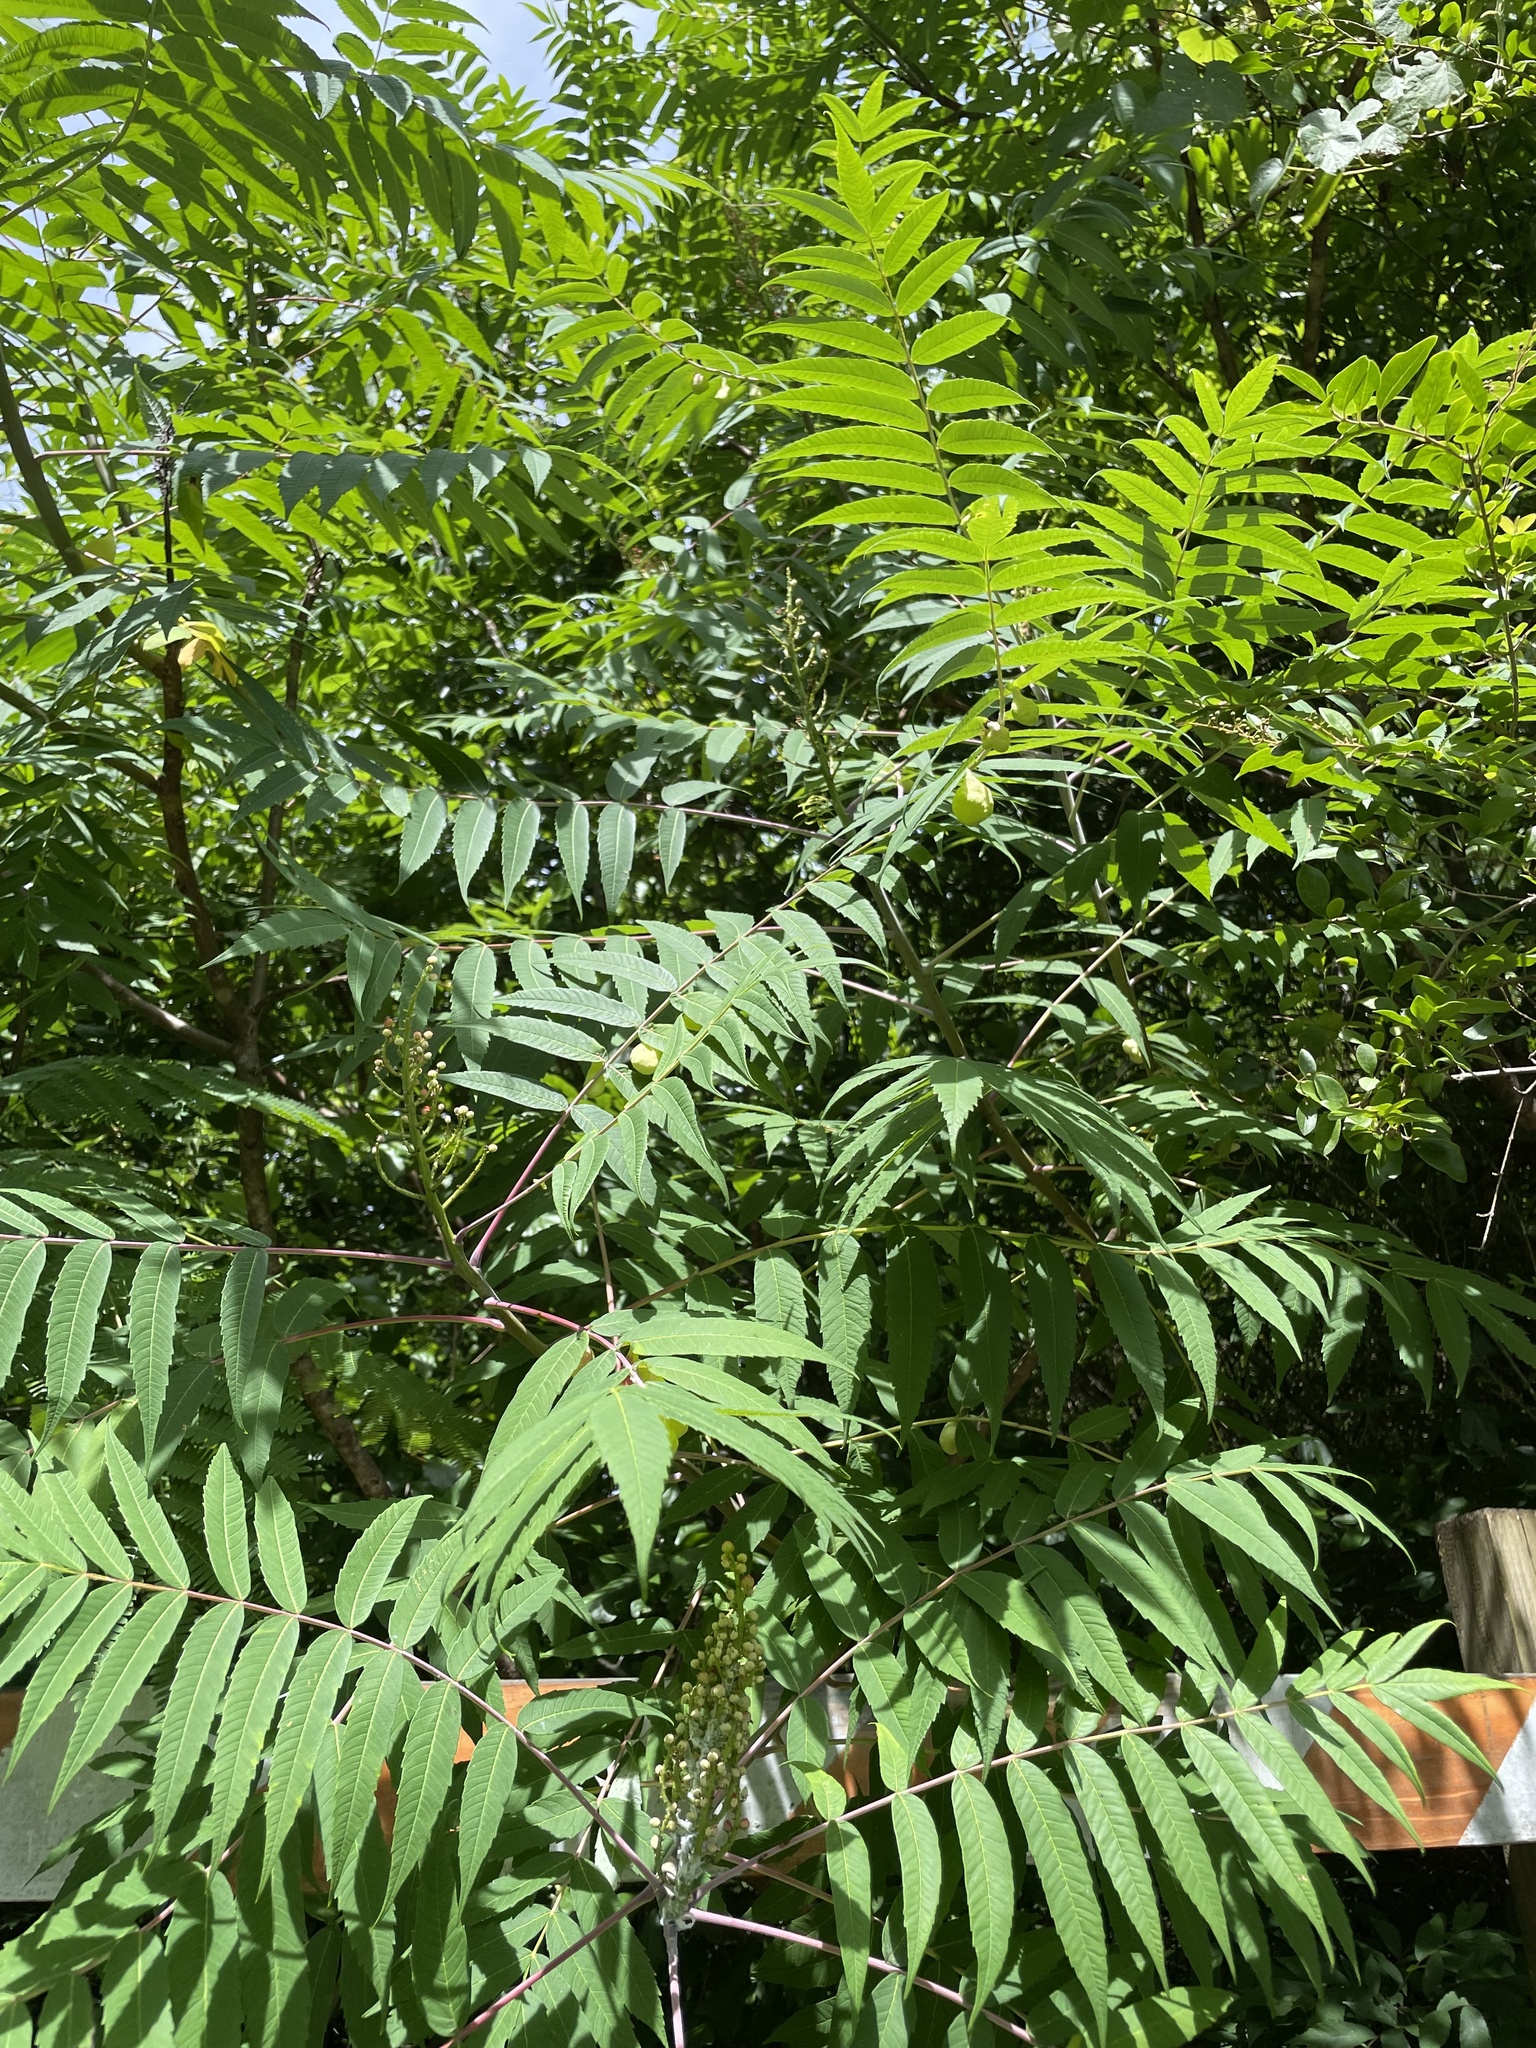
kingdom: Plantae
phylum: Tracheophyta
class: Magnoliopsida
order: Sapindales
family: Anacardiaceae
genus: Rhus
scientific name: Rhus glabra
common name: Scarlet sumac
